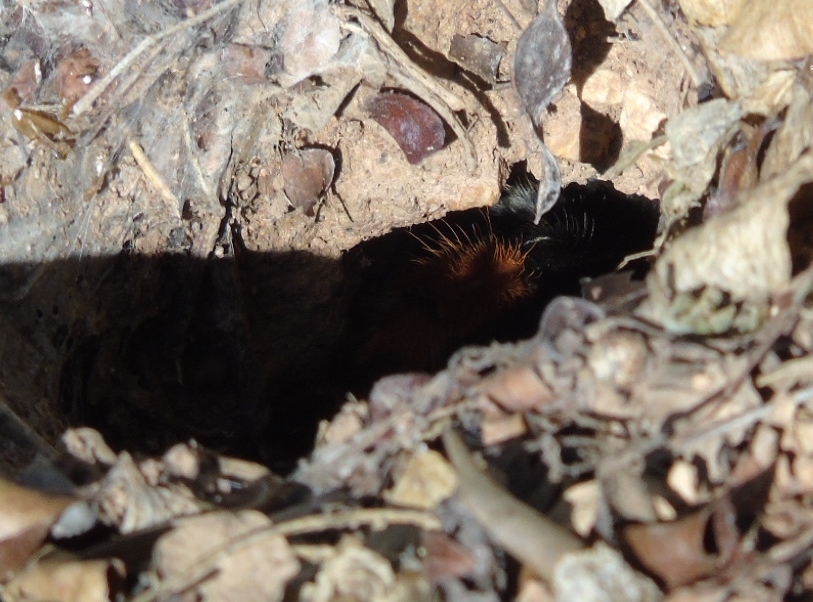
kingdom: Animalia
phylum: Arthropoda
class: Arachnida
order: Araneae
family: Theraphosidae
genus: Brachypelma
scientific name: Brachypelma emilia
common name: Mexican redleg
